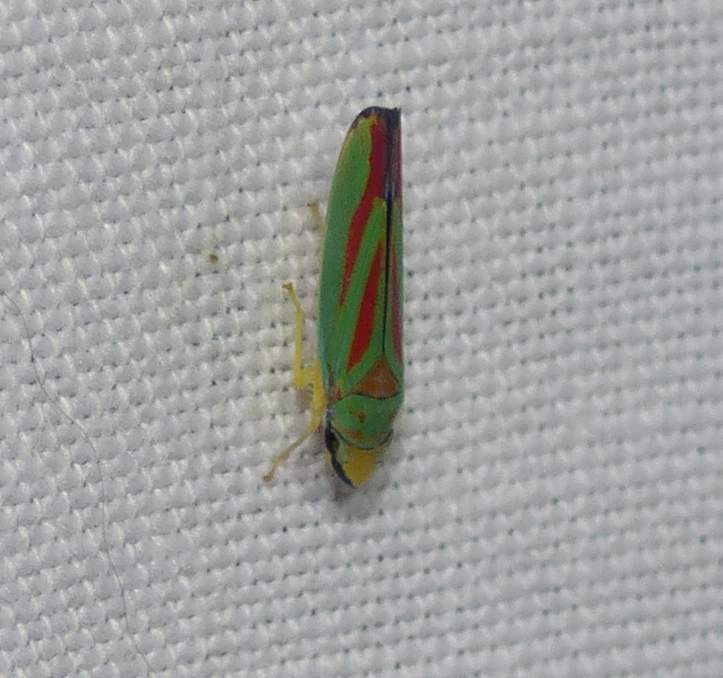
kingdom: Animalia
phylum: Arthropoda
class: Insecta
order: Hemiptera
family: Cicadellidae
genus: Graphocephala
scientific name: Graphocephala fennahi
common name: Rhododendron leafhopper
